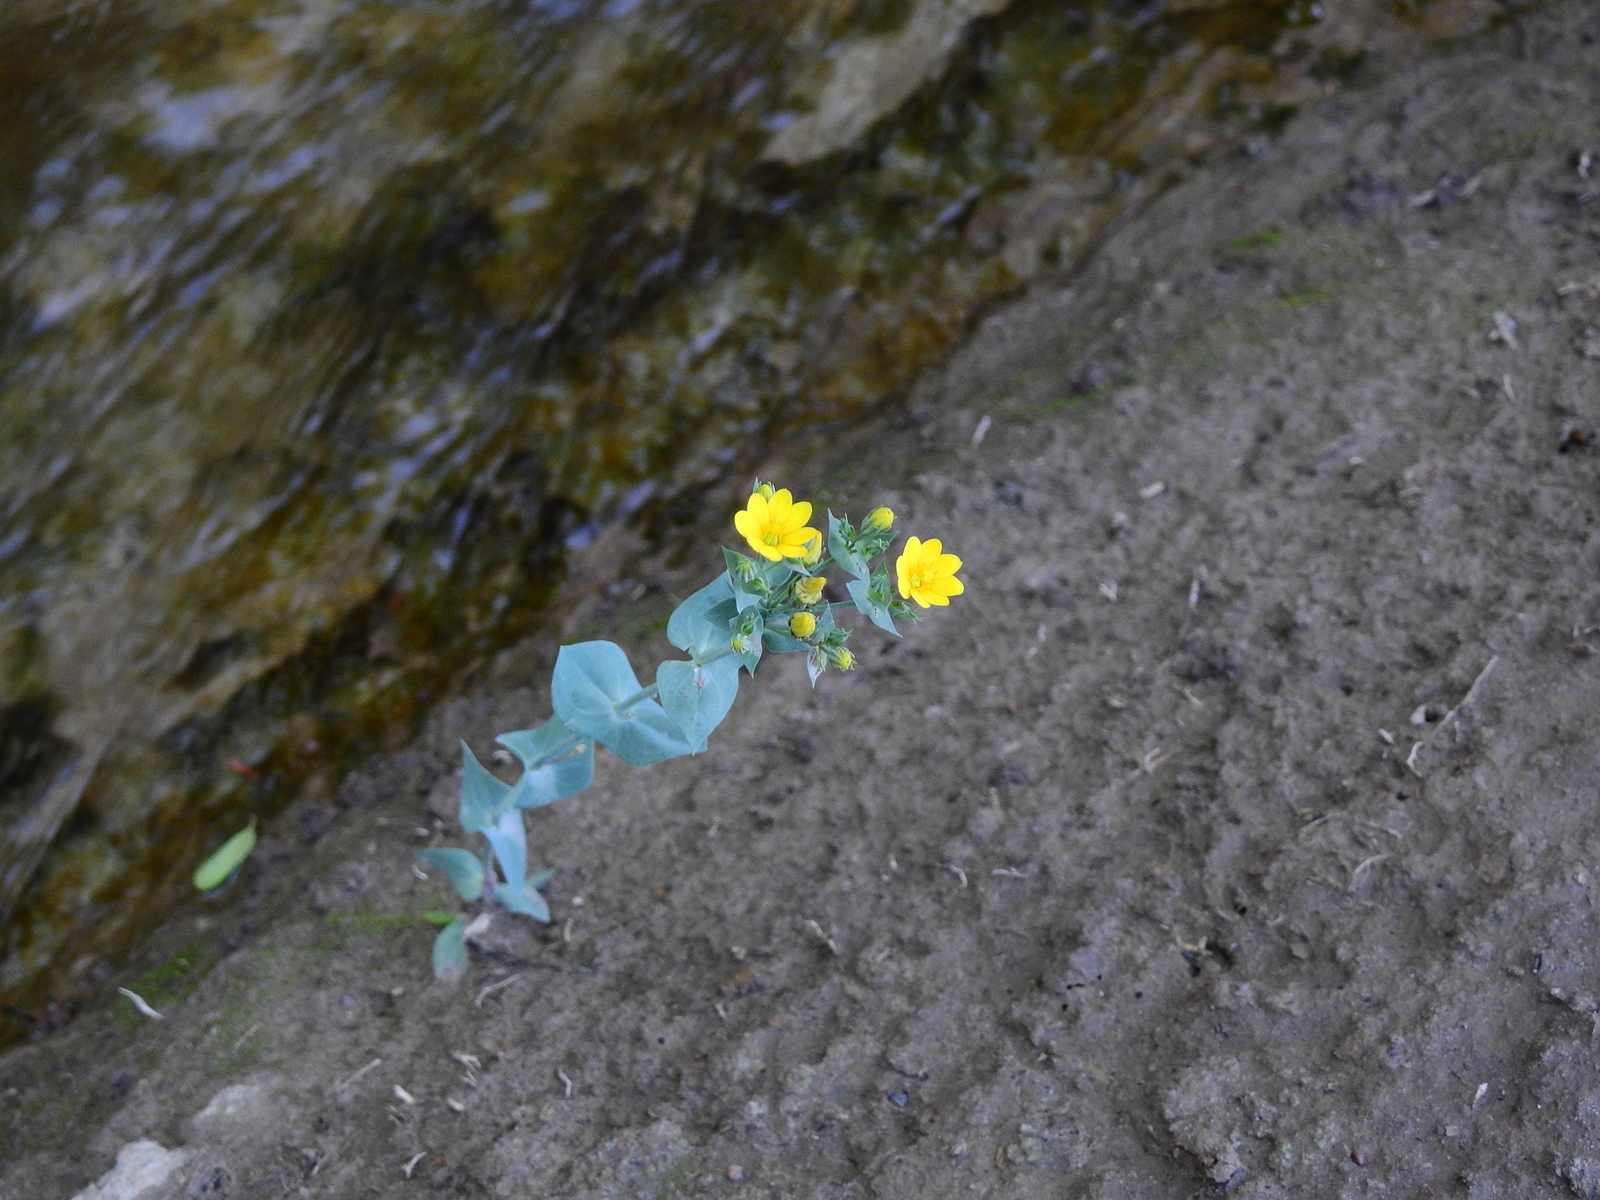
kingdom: Plantae
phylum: Tracheophyta
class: Magnoliopsida
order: Gentianales
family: Gentianaceae
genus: Blackstonia
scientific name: Blackstonia perfoliata
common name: Yellow-wort
